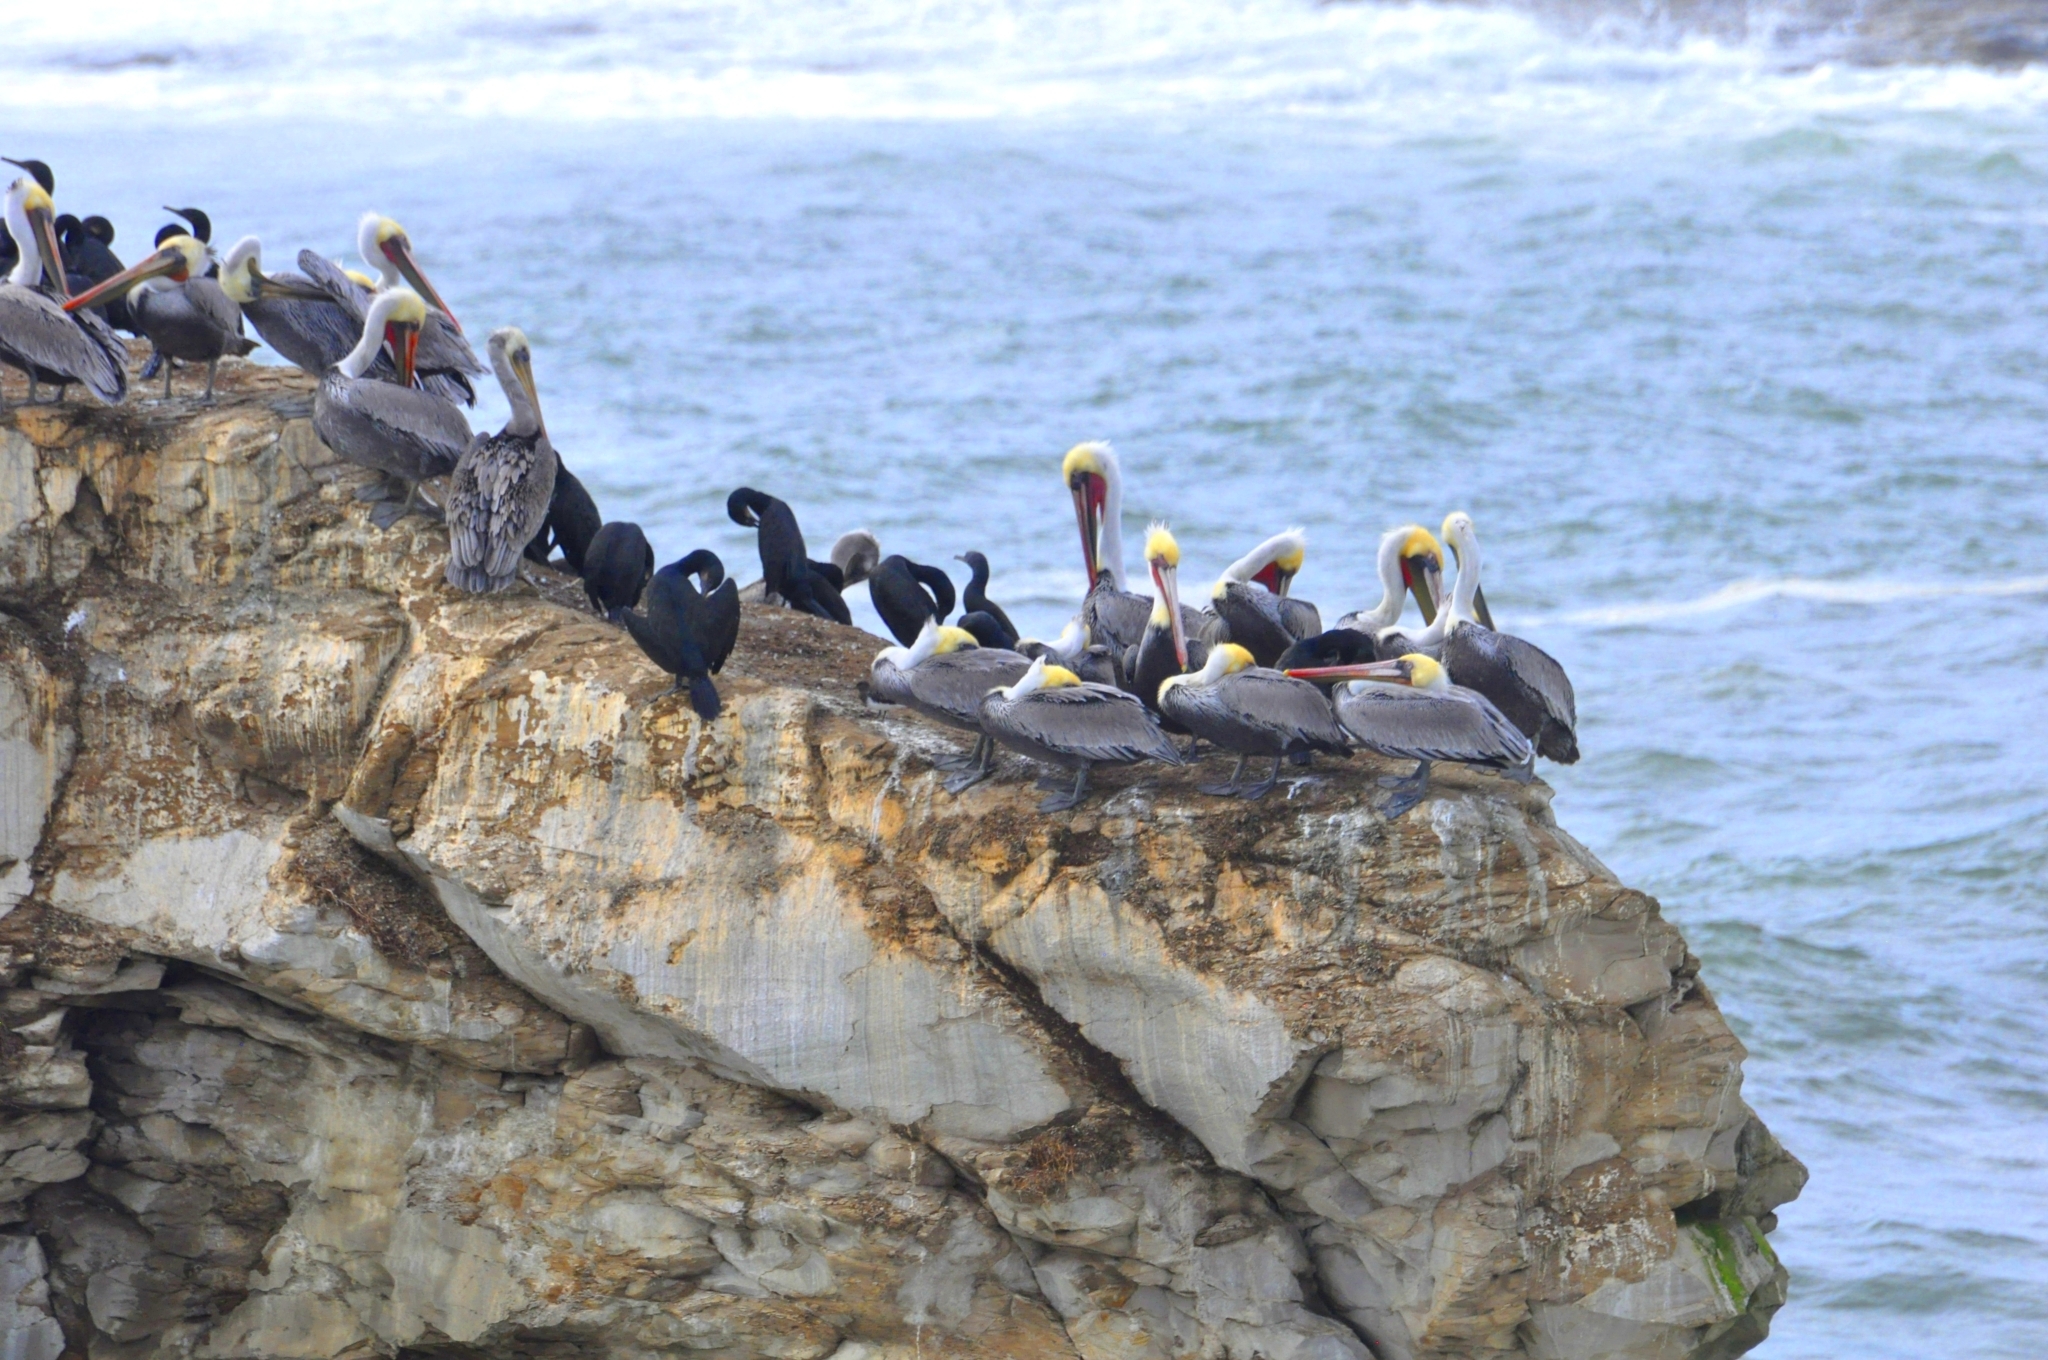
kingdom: Animalia
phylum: Chordata
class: Aves
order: Pelecaniformes
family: Pelecanidae
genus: Pelecanus
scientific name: Pelecanus occidentalis
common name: Brown pelican
